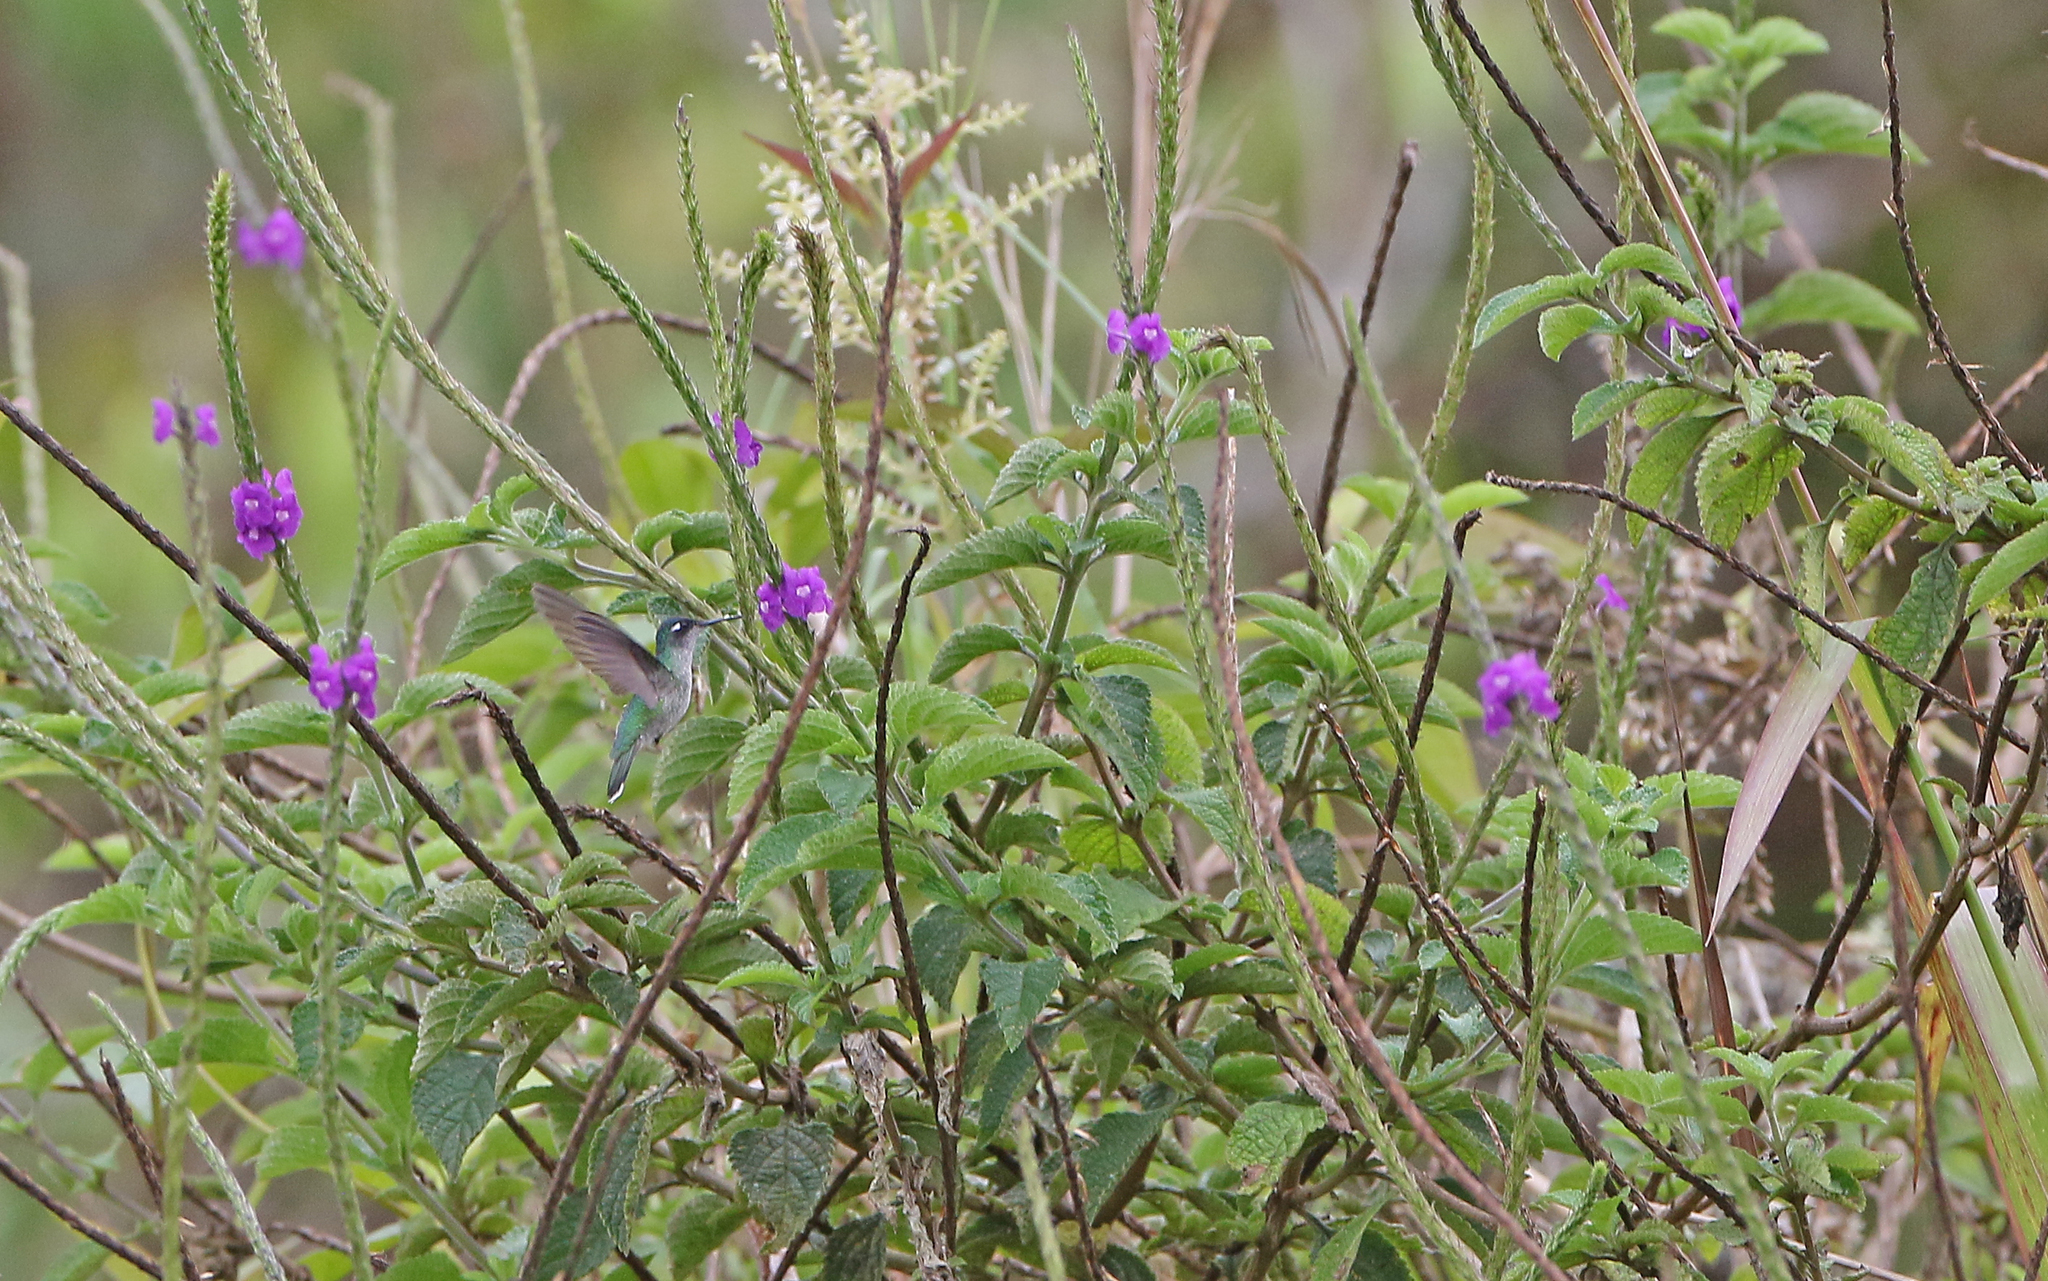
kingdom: Animalia
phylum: Chordata
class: Aves
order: Apodiformes
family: Trochilidae
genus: Klais
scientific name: Klais guimeti
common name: Violet-headed hummingbird
